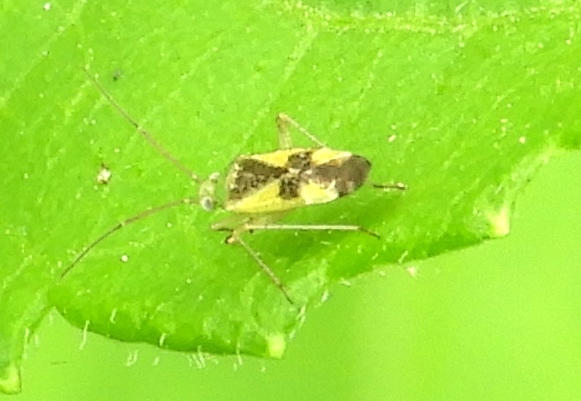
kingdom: Animalia
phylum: Arthropoda
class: Insecta
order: Hemiptera
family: Miridae
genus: Reuteroscopus
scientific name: Reuteroscopus ornatus
